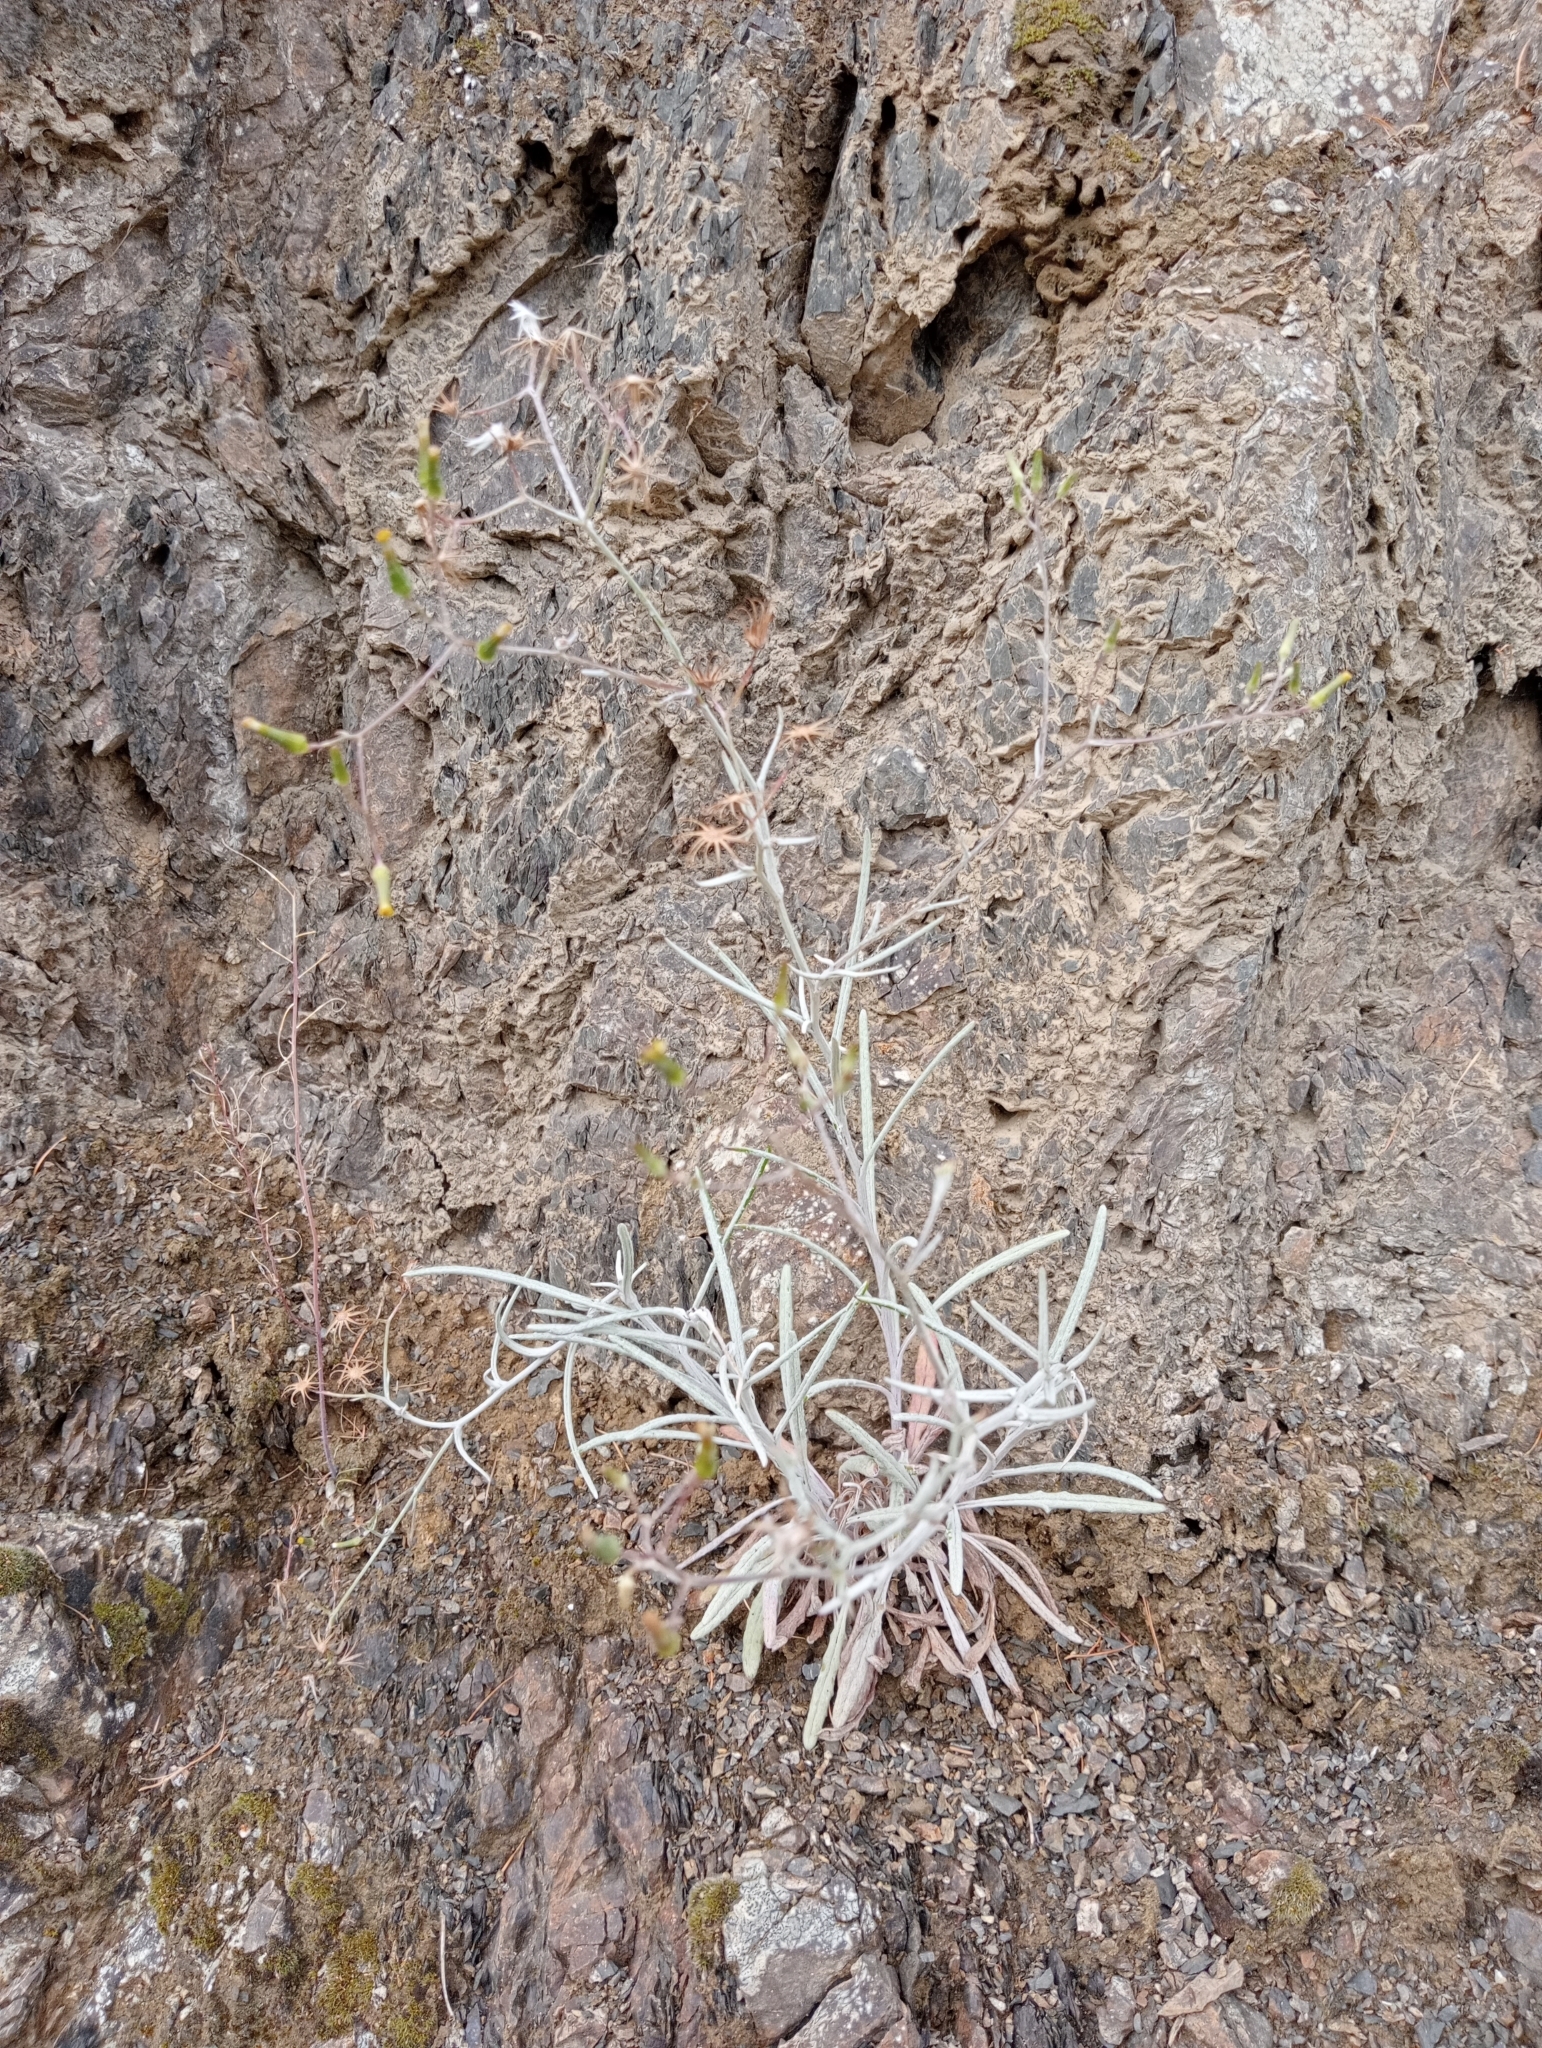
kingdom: Plantae
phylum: Tracheophyta
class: Magnoliopsida
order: Asterales
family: Asteraceae
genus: Senecio
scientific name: Senecio quadridentatus
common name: Cotton fireweed
